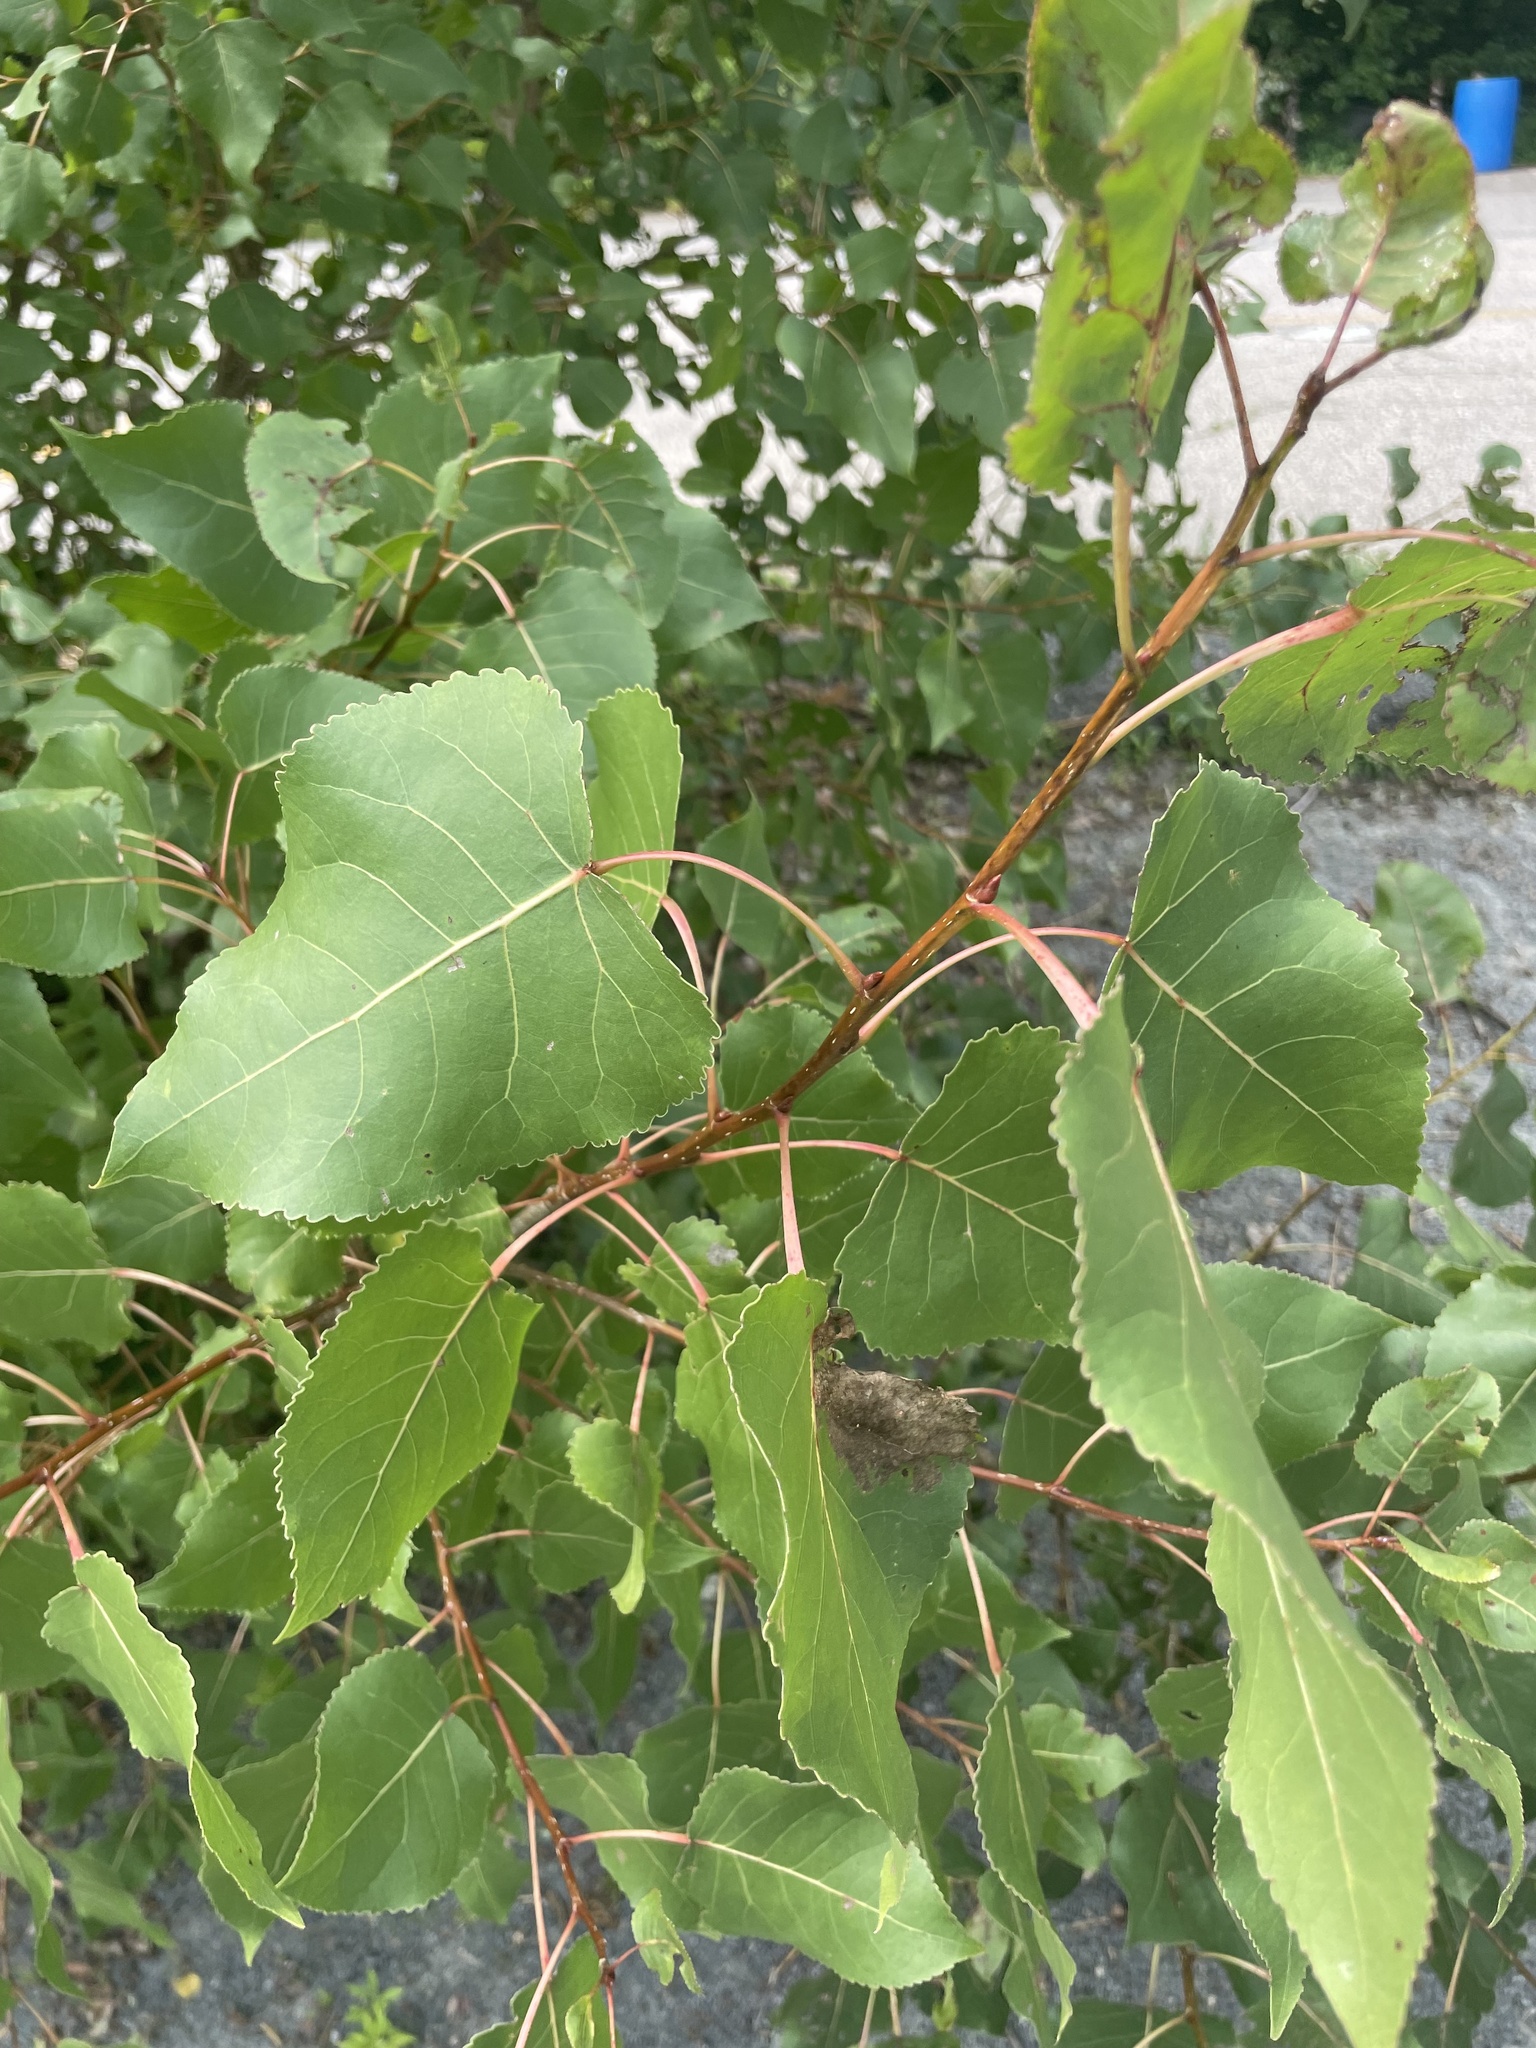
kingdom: Plantae
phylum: Tracheophyta
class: Magnoliopsida
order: Malpighiales
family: Salicaceae
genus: Populus
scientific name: Populus deltoides
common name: Eastern cottonwood
